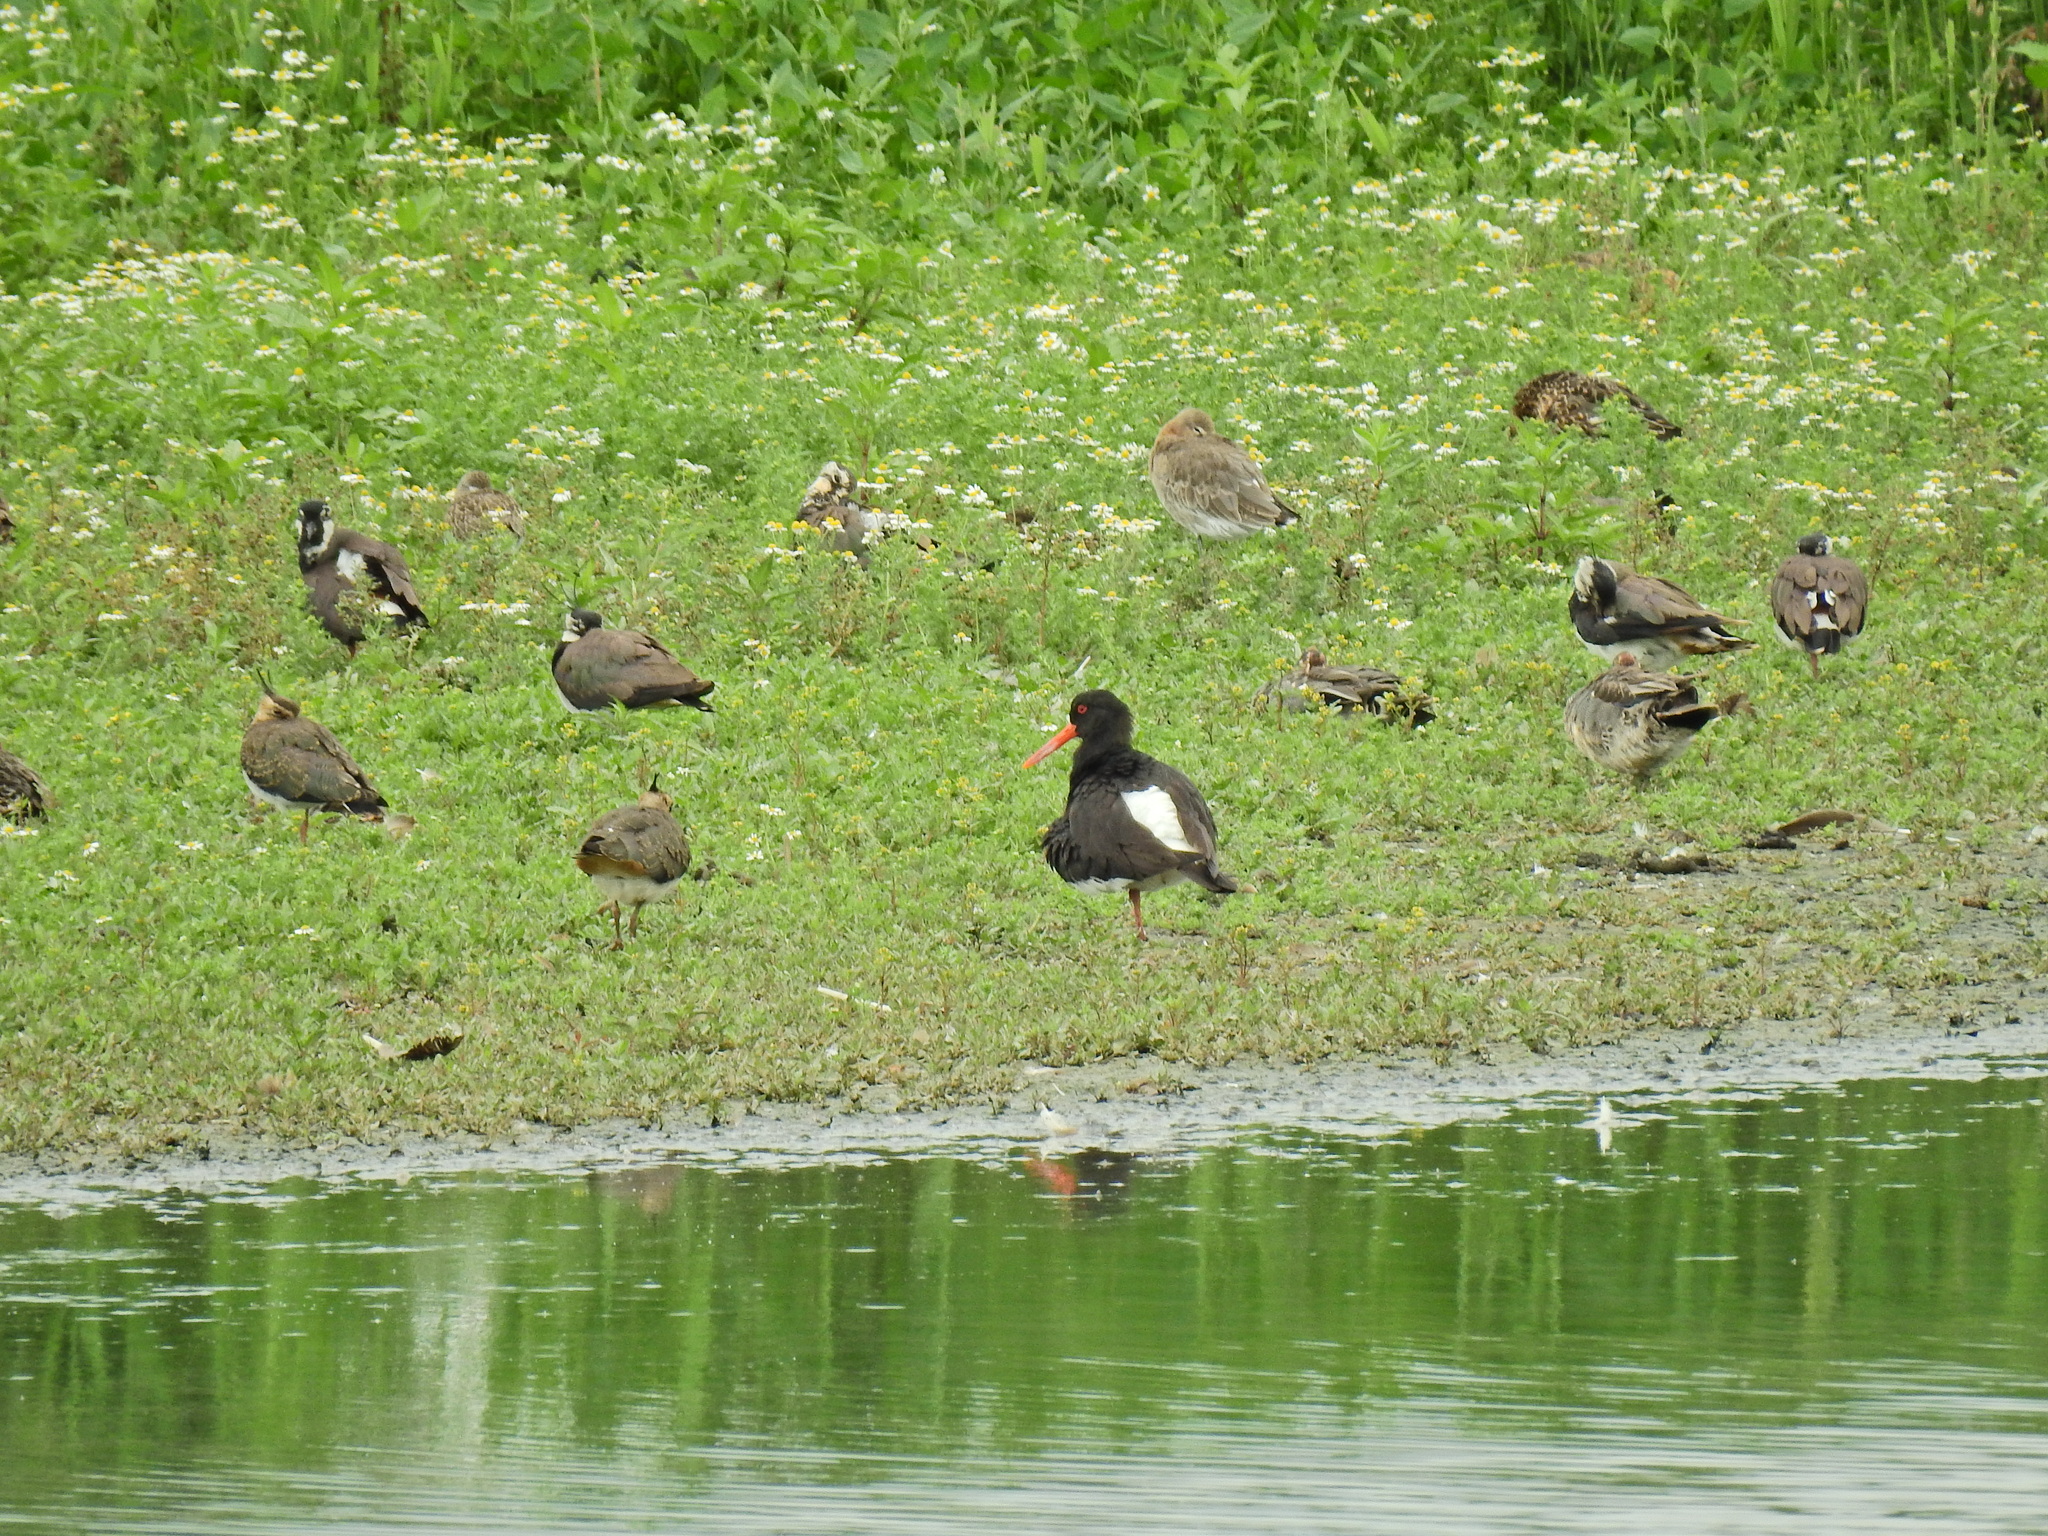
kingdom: Animalia
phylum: Chordata
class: Aves
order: Charadriiformes
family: Haematopodidae
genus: Haematopus
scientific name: Haematopus ostralegus
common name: Eurasian oystercatcher
